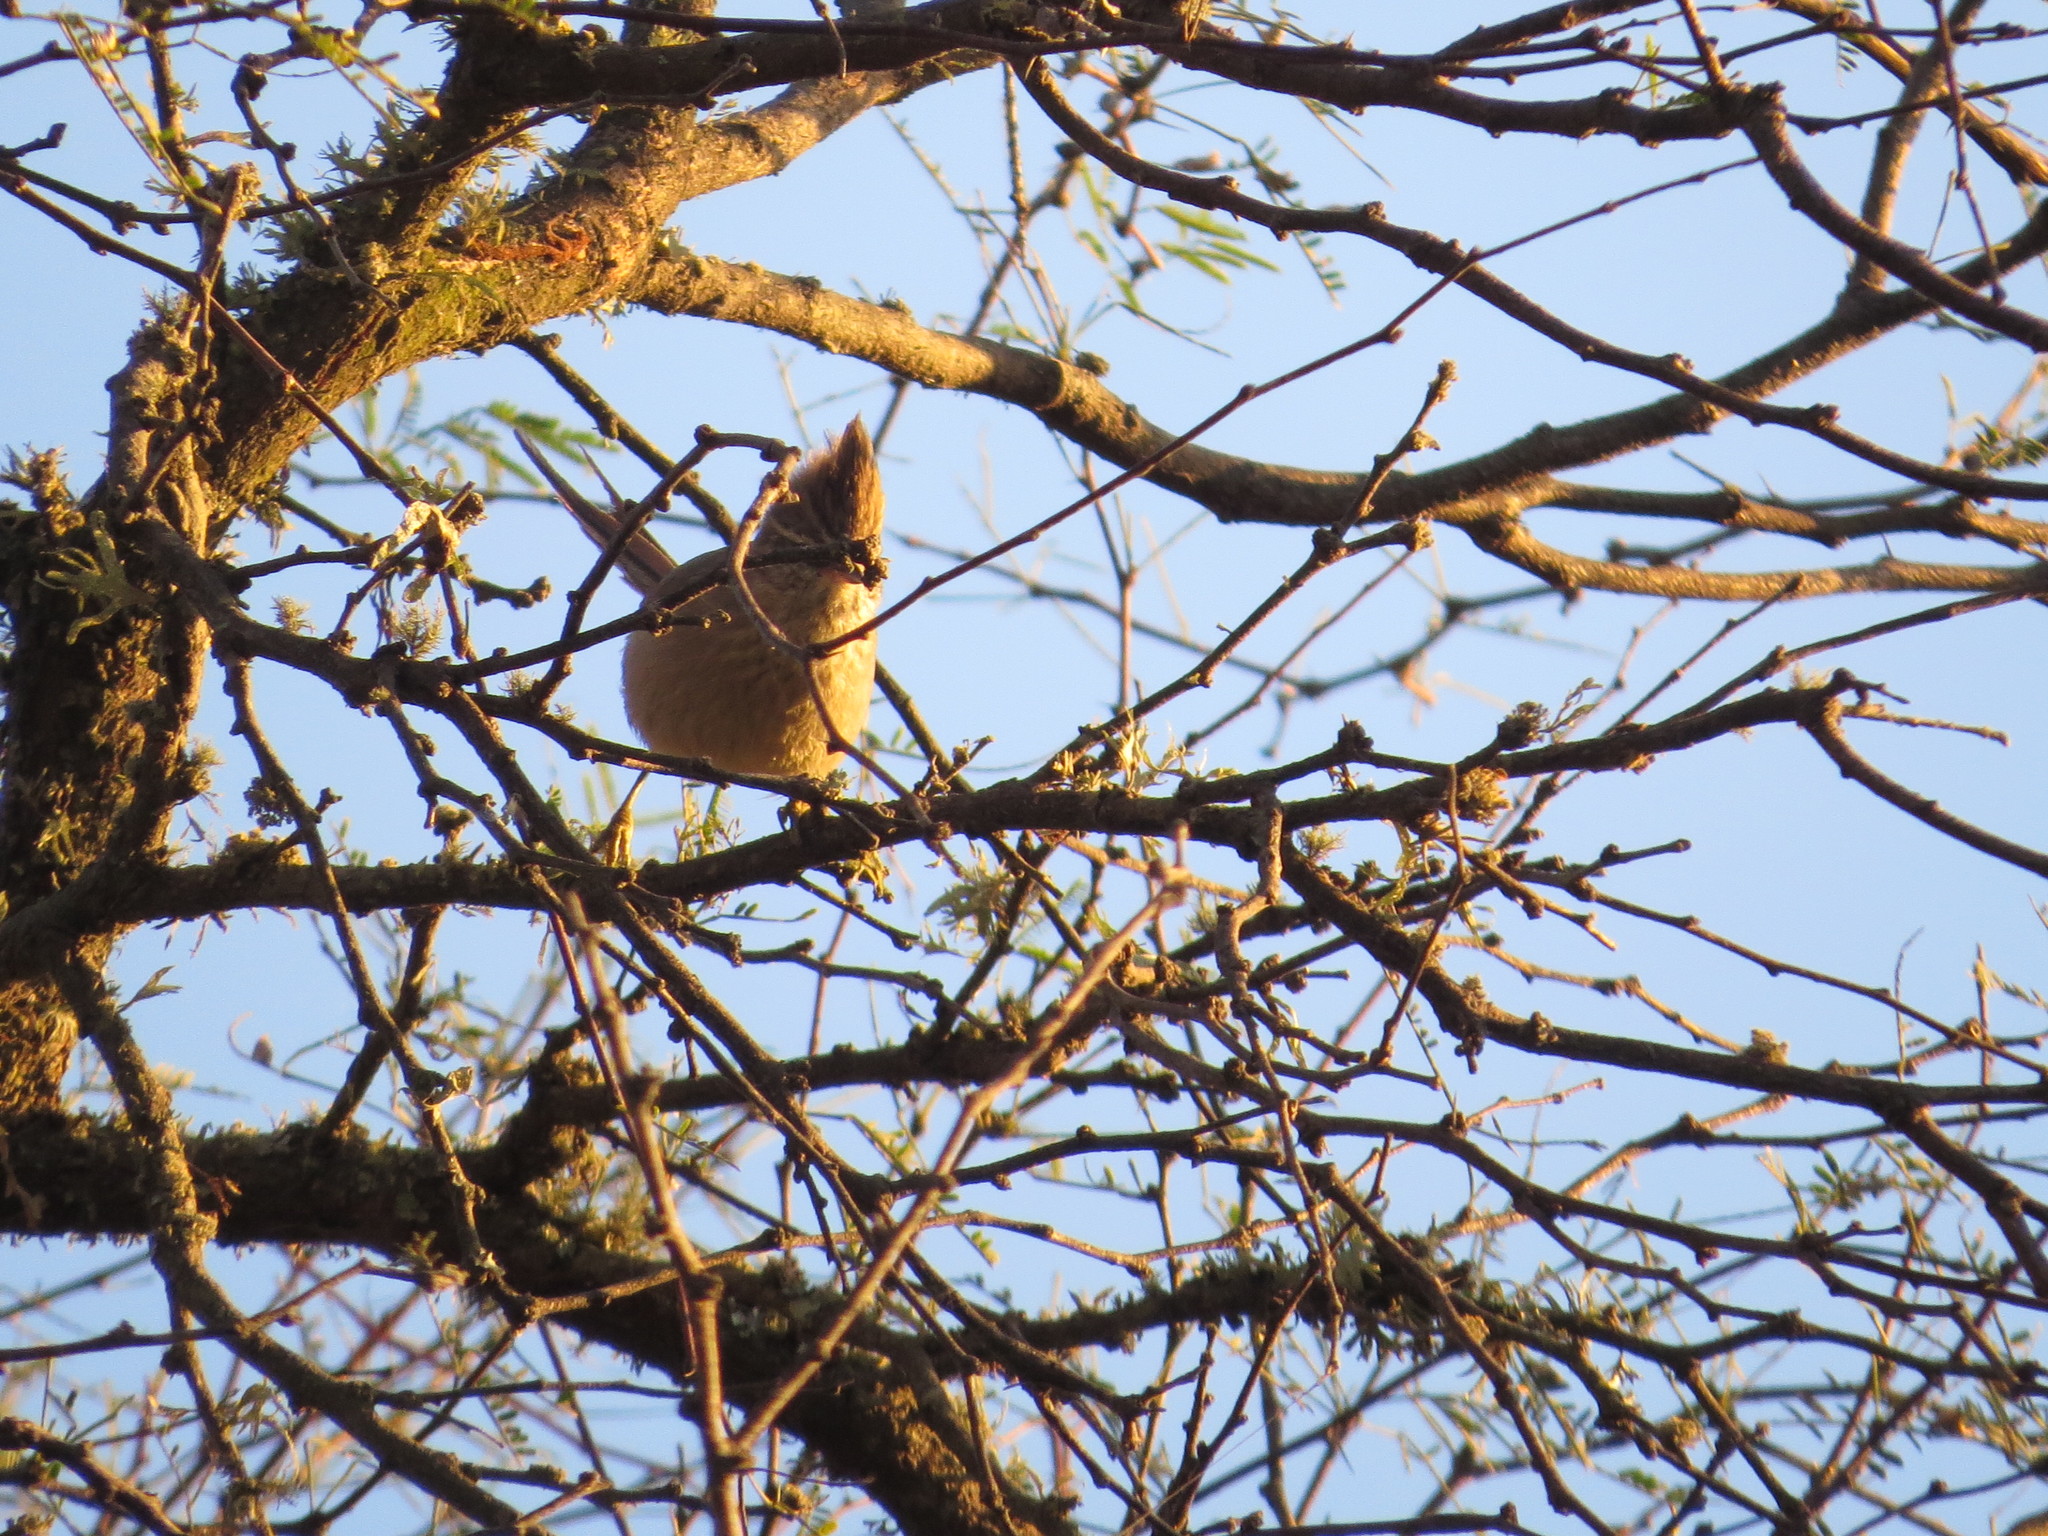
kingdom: Animalia
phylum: Chordata
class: Aves
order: Passeriformes
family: Furnariidae
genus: Leptasthenura
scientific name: Leptasthenura platensis
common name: Tufted tit-spinetail
